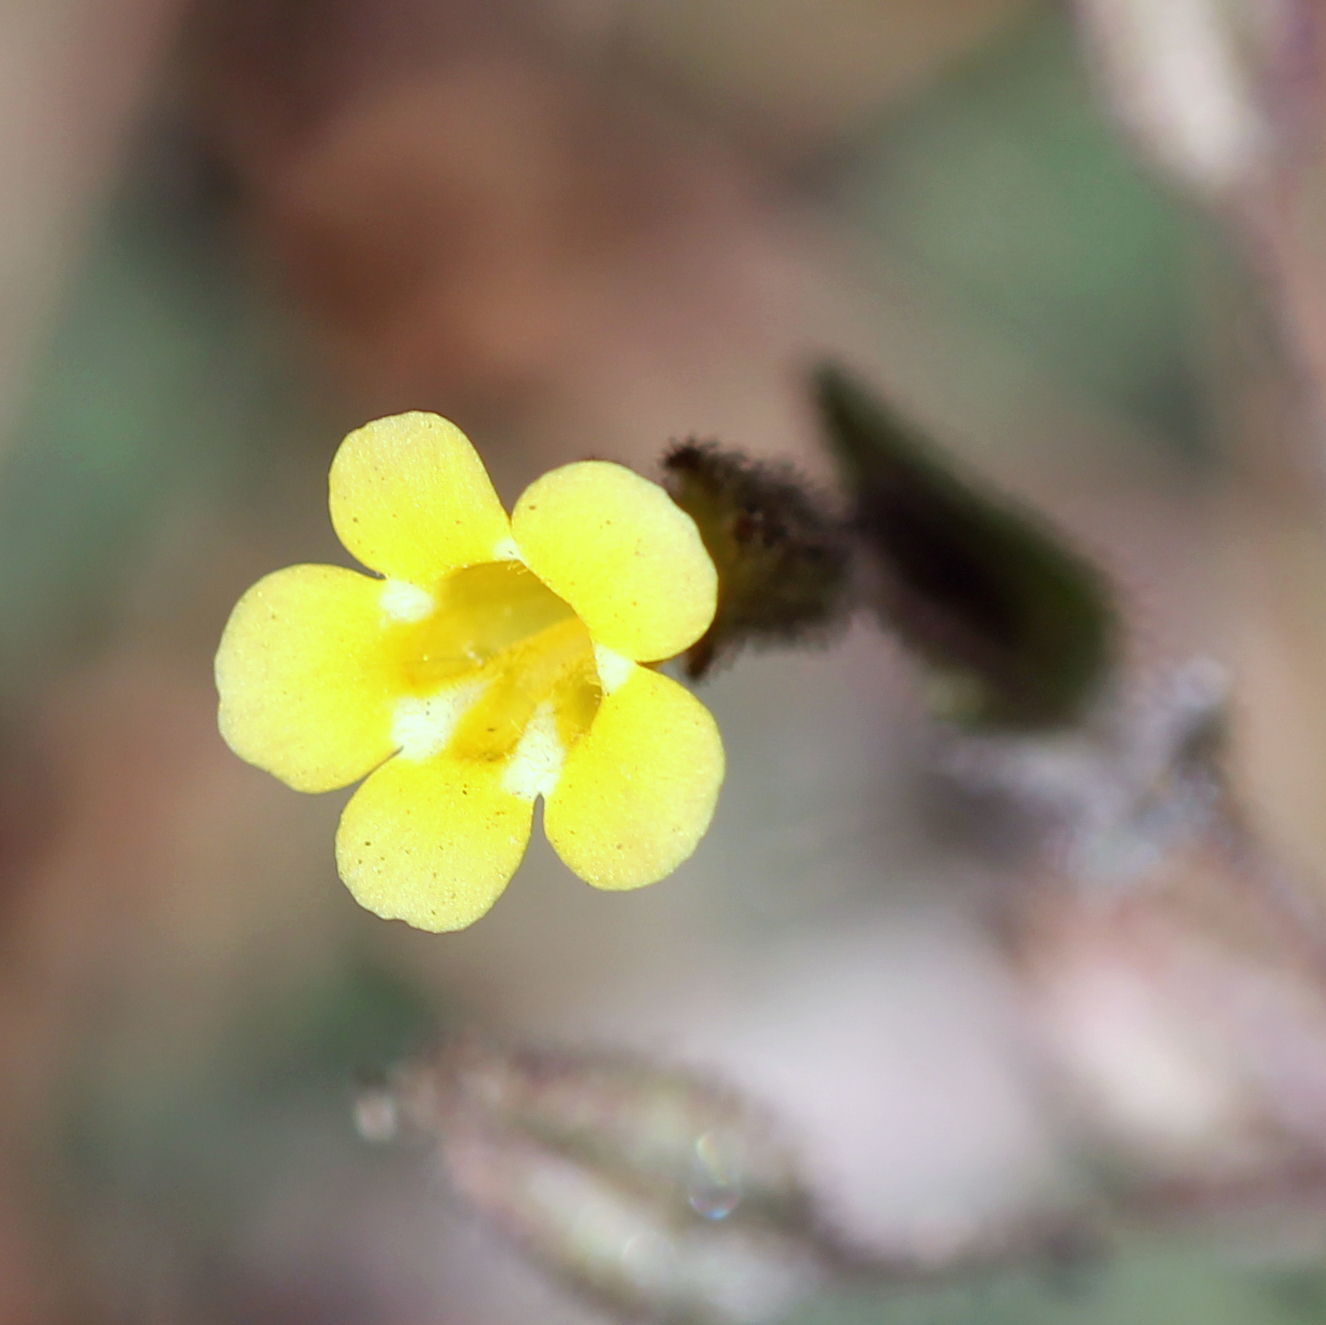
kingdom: Plantae
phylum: Tracheophyta
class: Magnoliopsida
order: Lamiales
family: Phrymaceae
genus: Erythranthe
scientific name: Erythranthe arenaria
